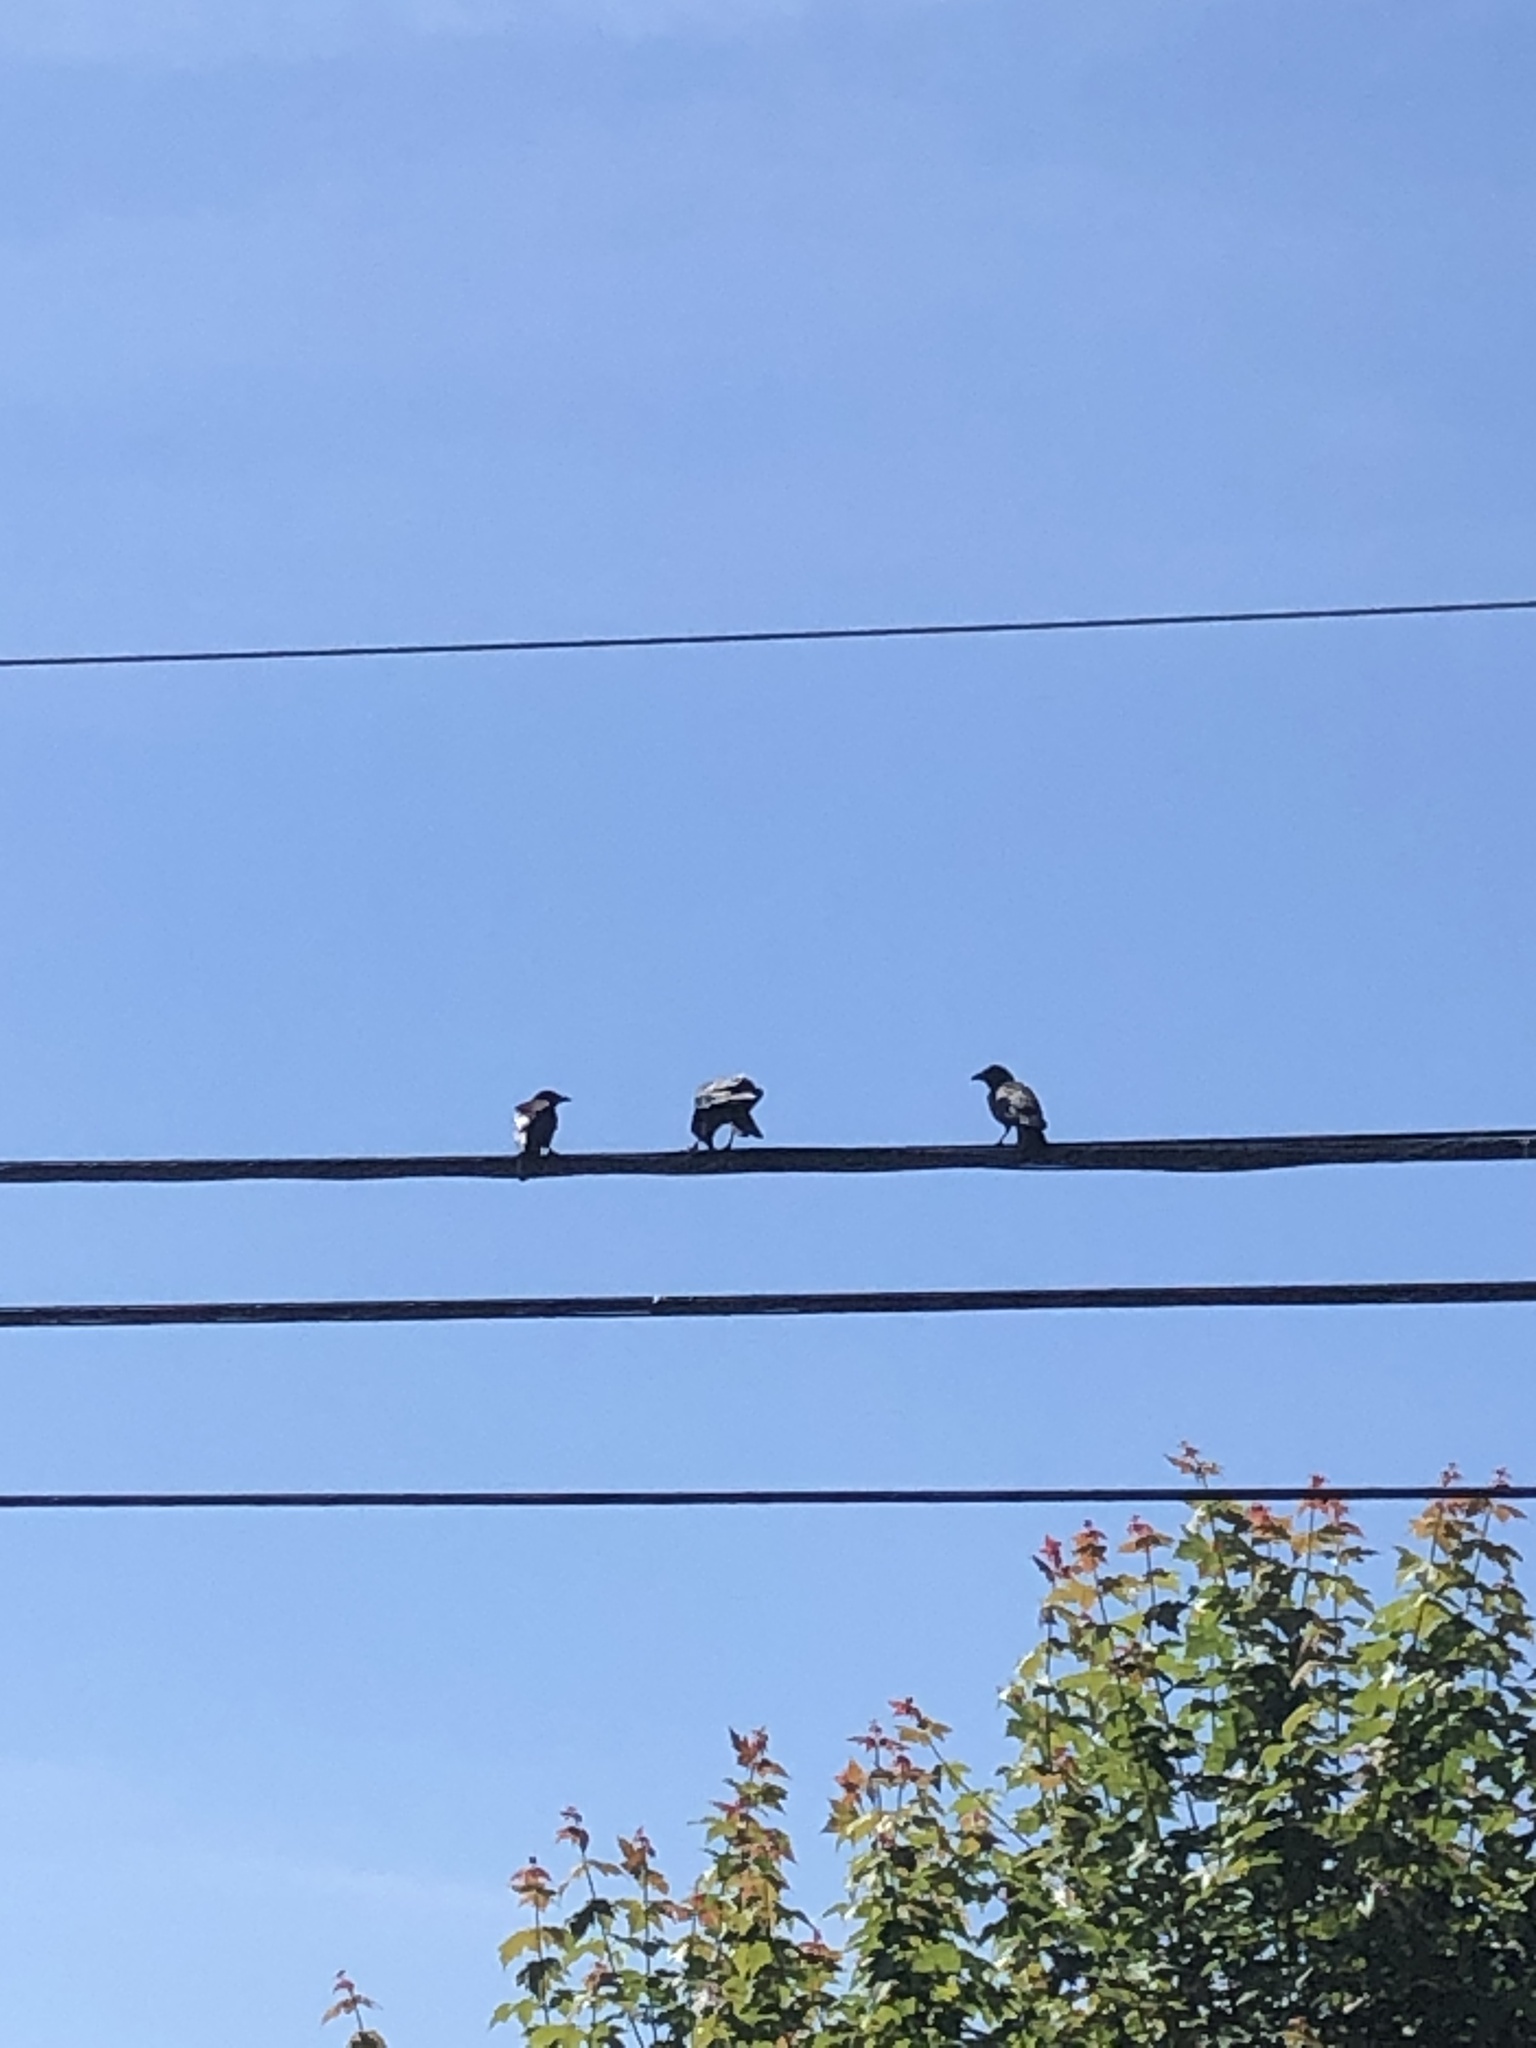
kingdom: Animalia
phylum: Chordata
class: Aves
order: Passeriformes
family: Corvidae
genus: Corvus
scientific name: Corvus brachyrhynchos
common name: American crow
